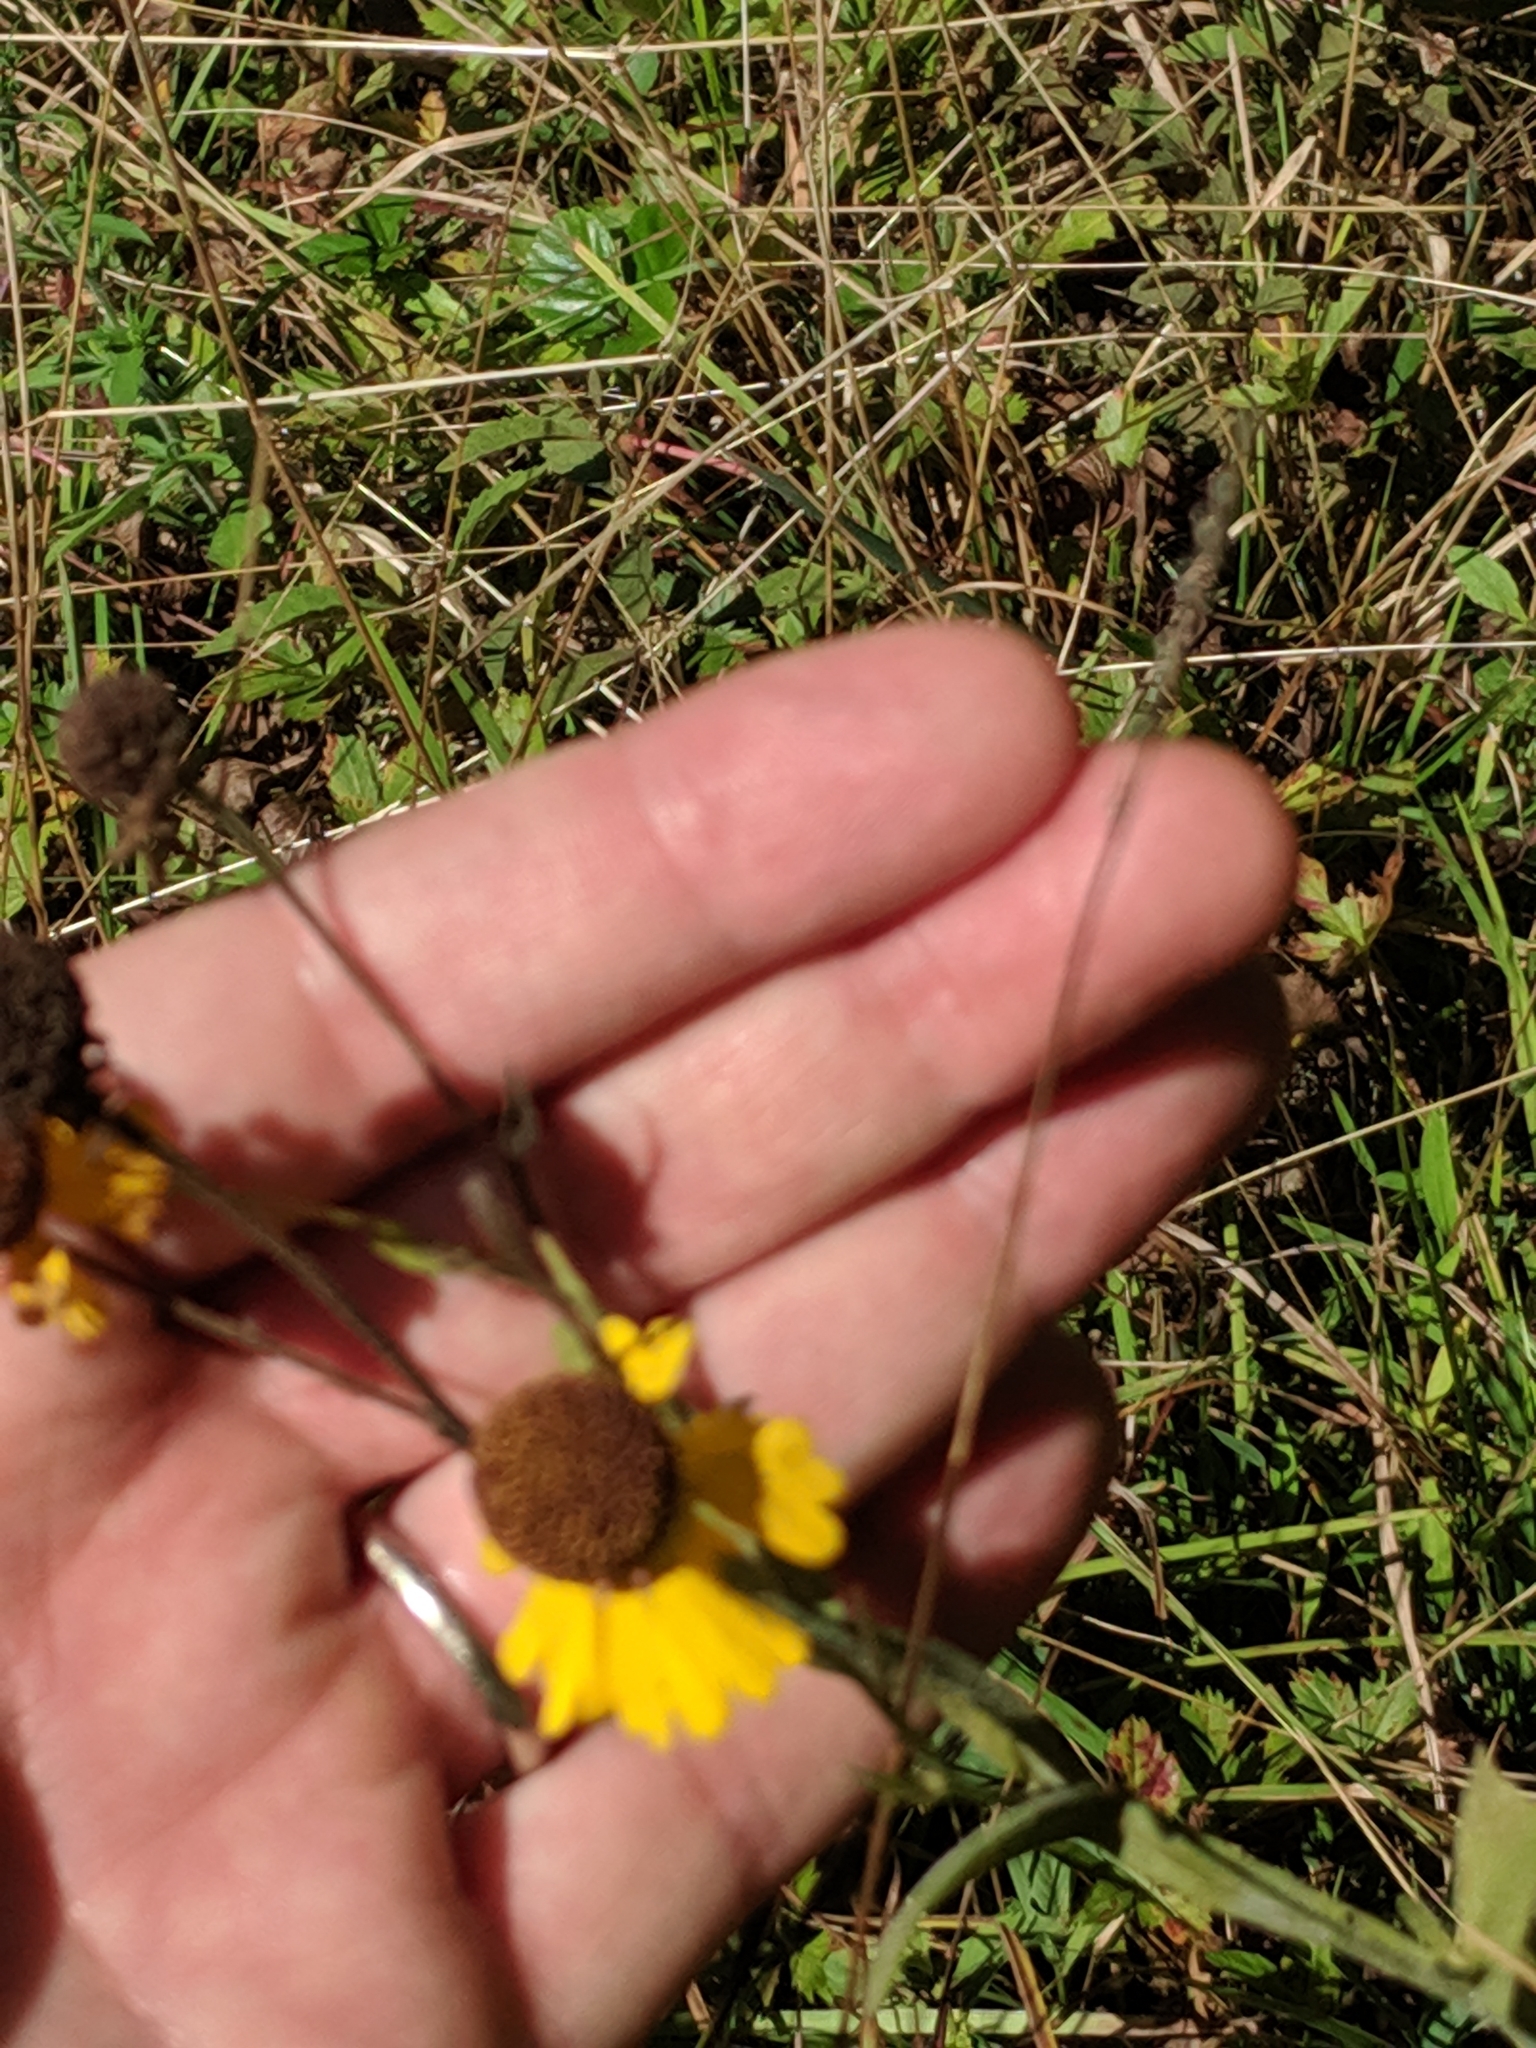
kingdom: Plantae
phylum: Tracheophyta
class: Magnoliopsida
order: Asterales
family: Asteraceae
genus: Helenium
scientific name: Helenium flexuosum
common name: Naked-flowered sneezeweed
